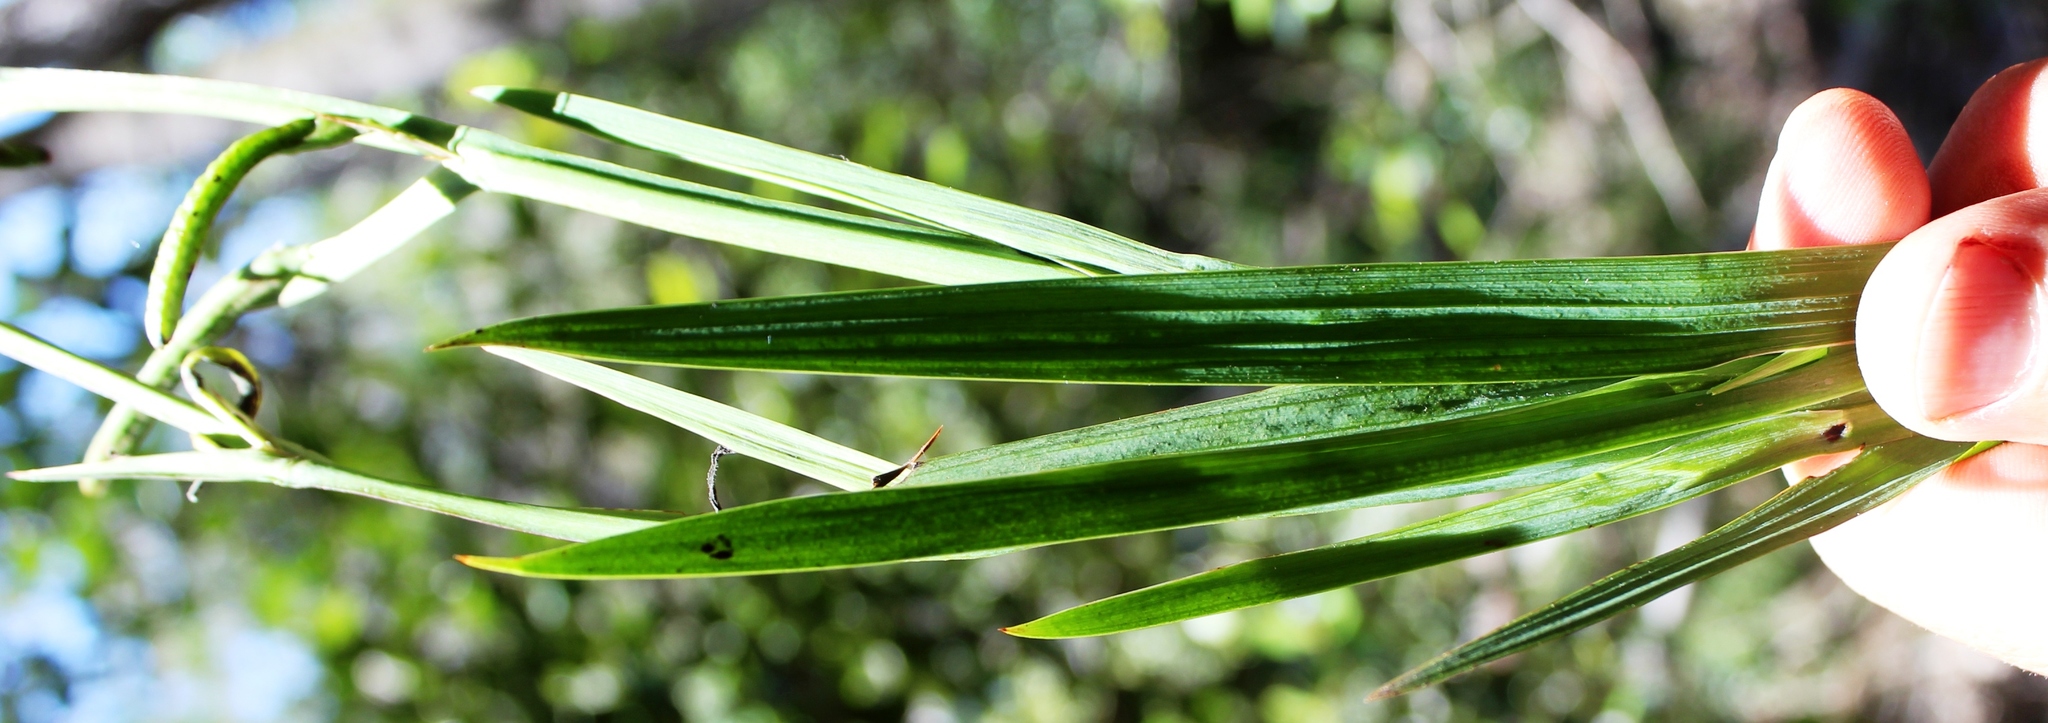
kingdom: Plantae
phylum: Tracheophyta
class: Liliopsida
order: Asparagales
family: Iridaceae
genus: Aristea
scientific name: Aristea ensifolia
